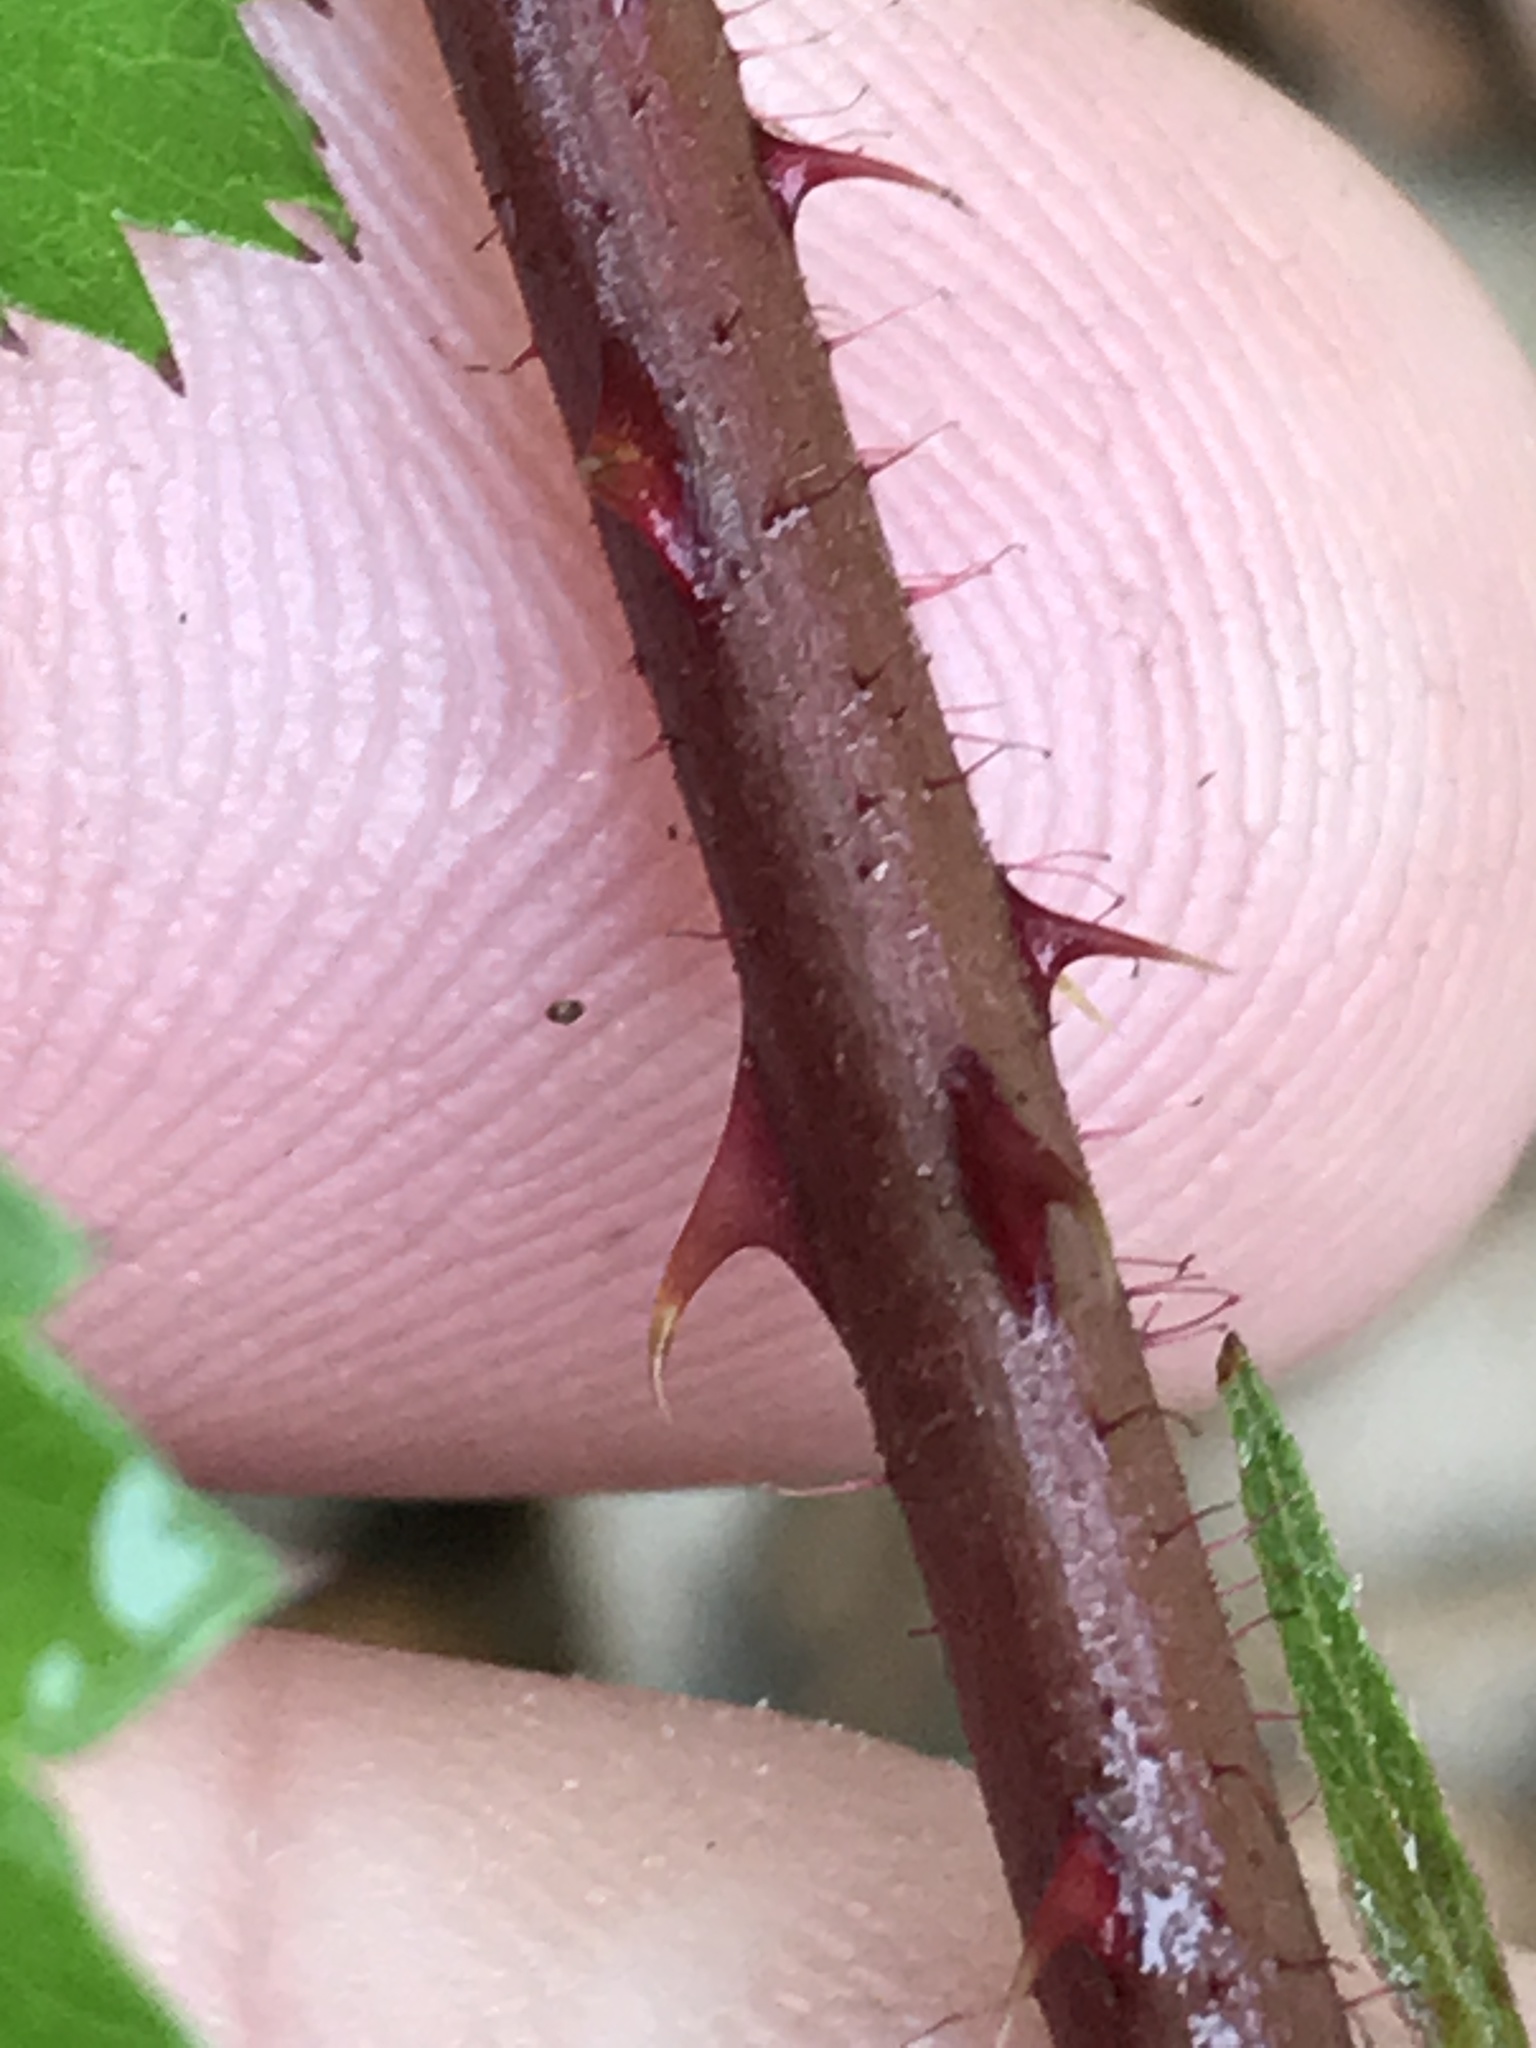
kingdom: Plantae
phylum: Tracheophyta
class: Magnoliopsida
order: Rosales
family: Rosaceae
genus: Rubus
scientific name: Rubus trivialis
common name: Southern dewberry
